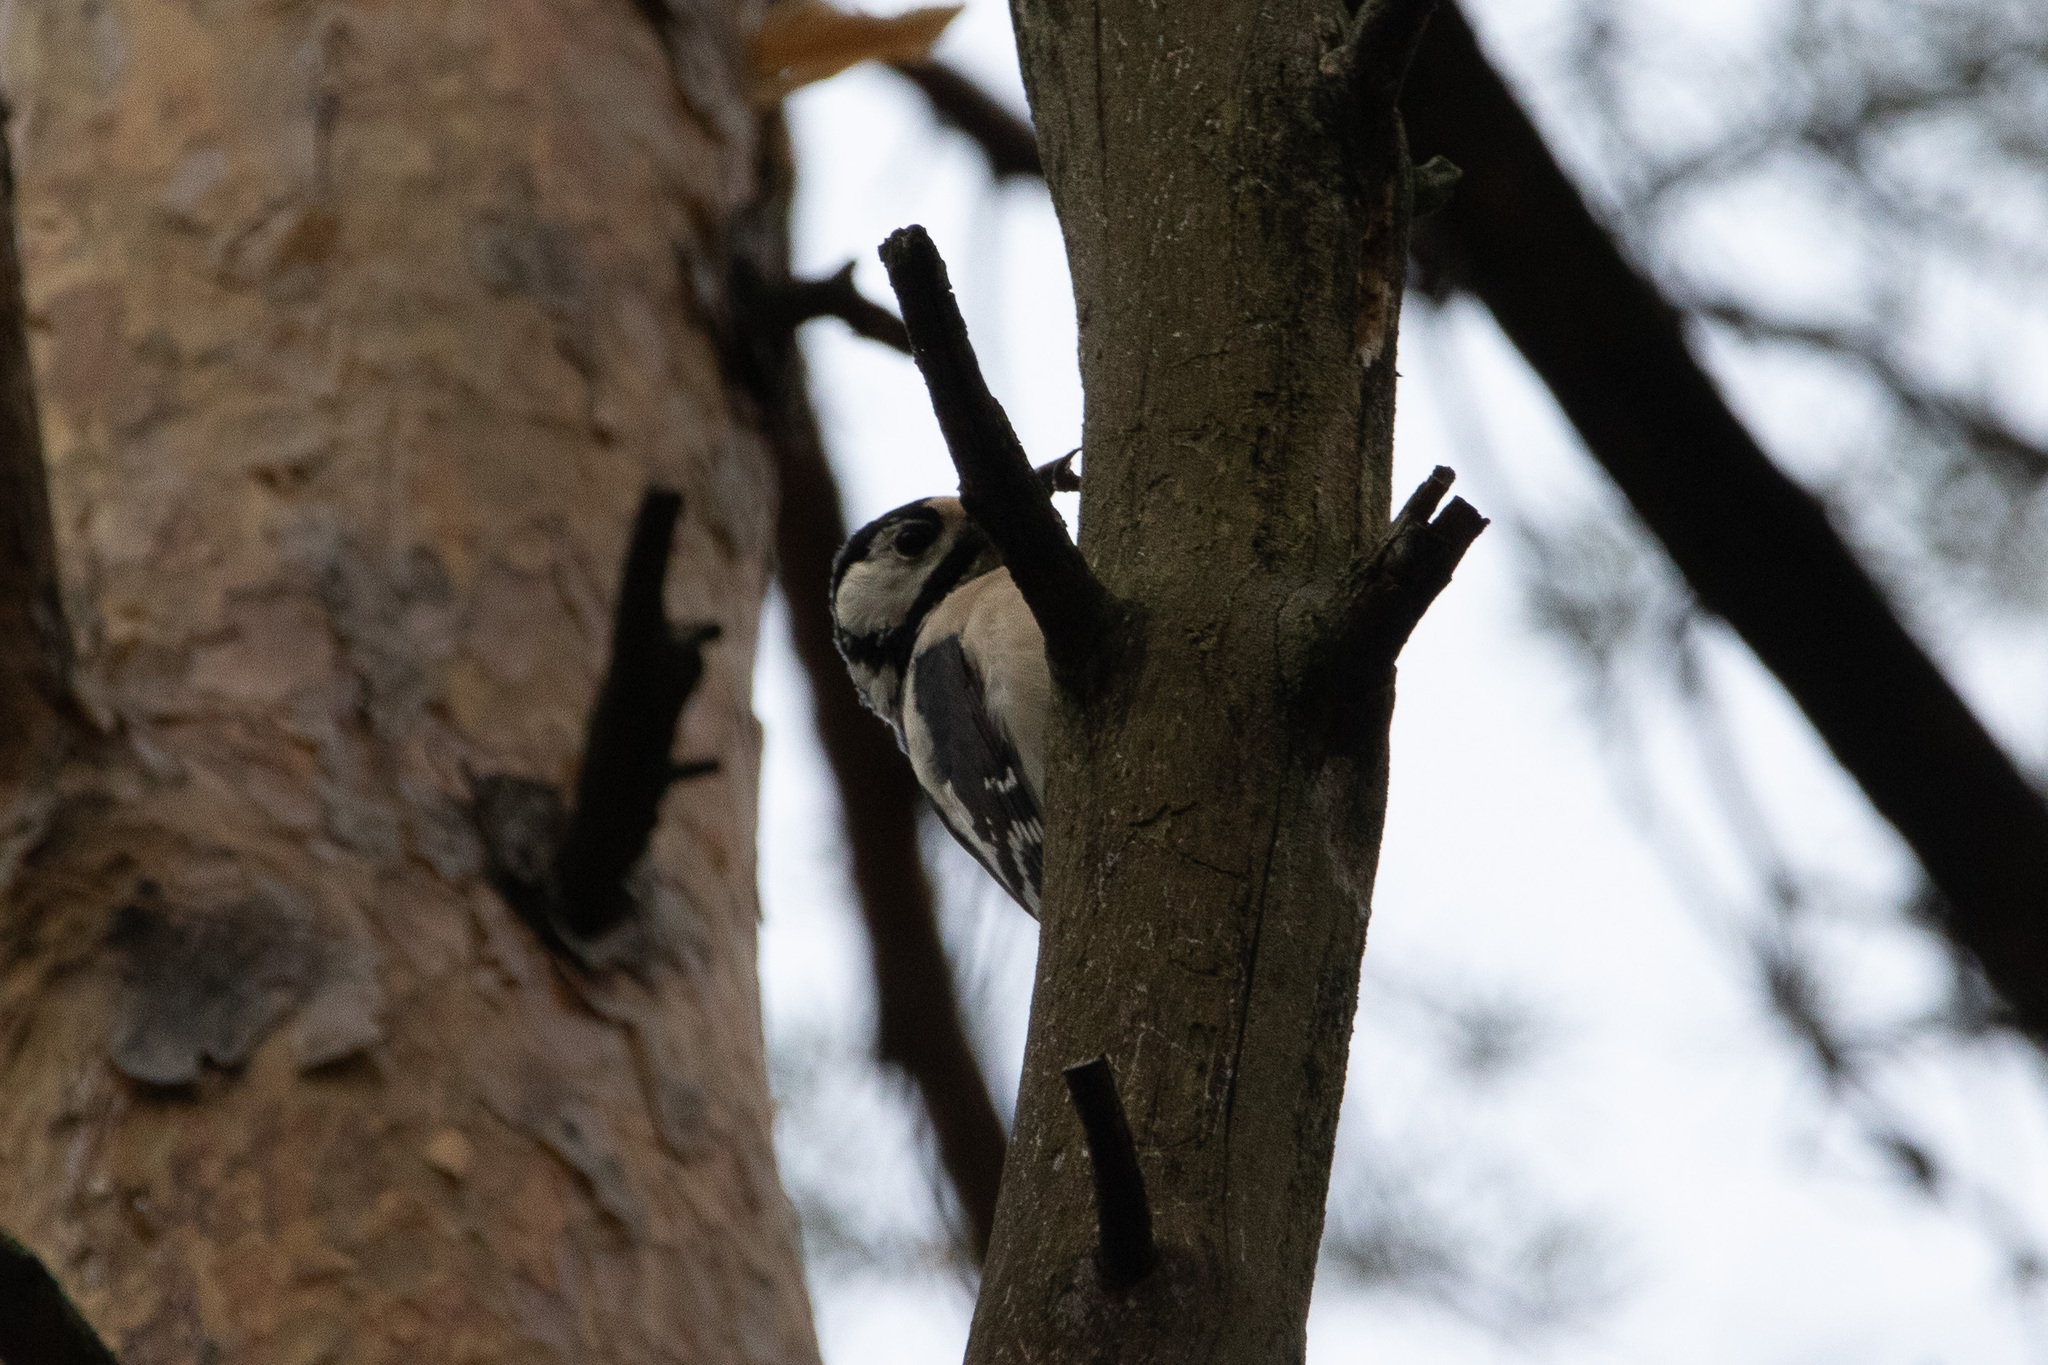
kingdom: Animalia
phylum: Chordata
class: Aves
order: Piciformes
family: Picidae
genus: Dendrocopos
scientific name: Dendrocopos major
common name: Great spotted woodpecker
